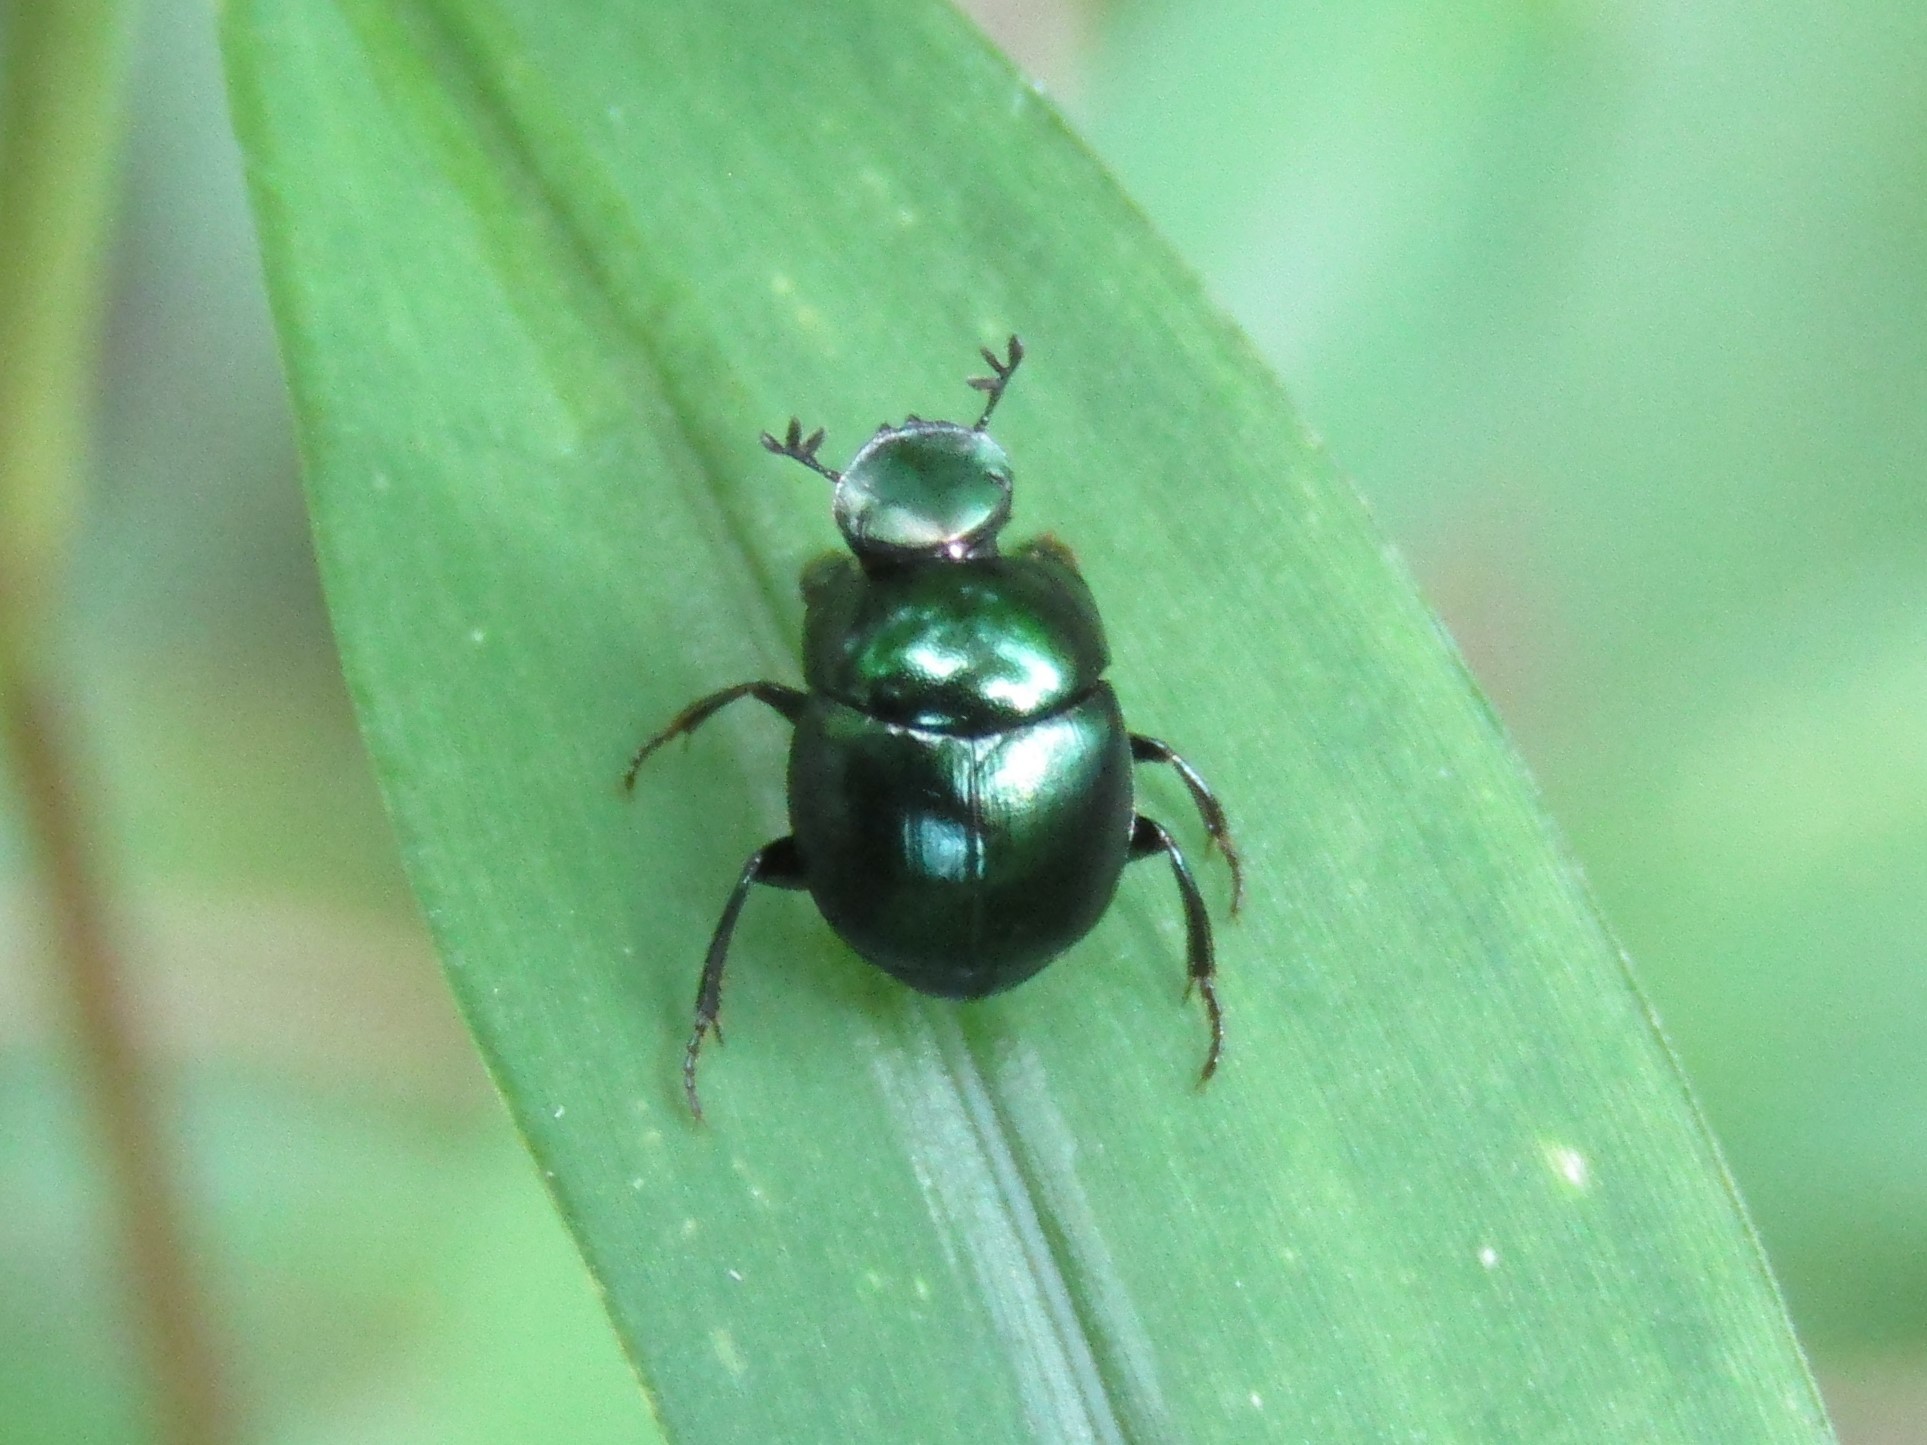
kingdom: Animalia
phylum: Arthropoda
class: Insecta
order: Coleoptera
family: Scarabaeidae
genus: Canthon
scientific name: Canthon viridis
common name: Tumblebug
